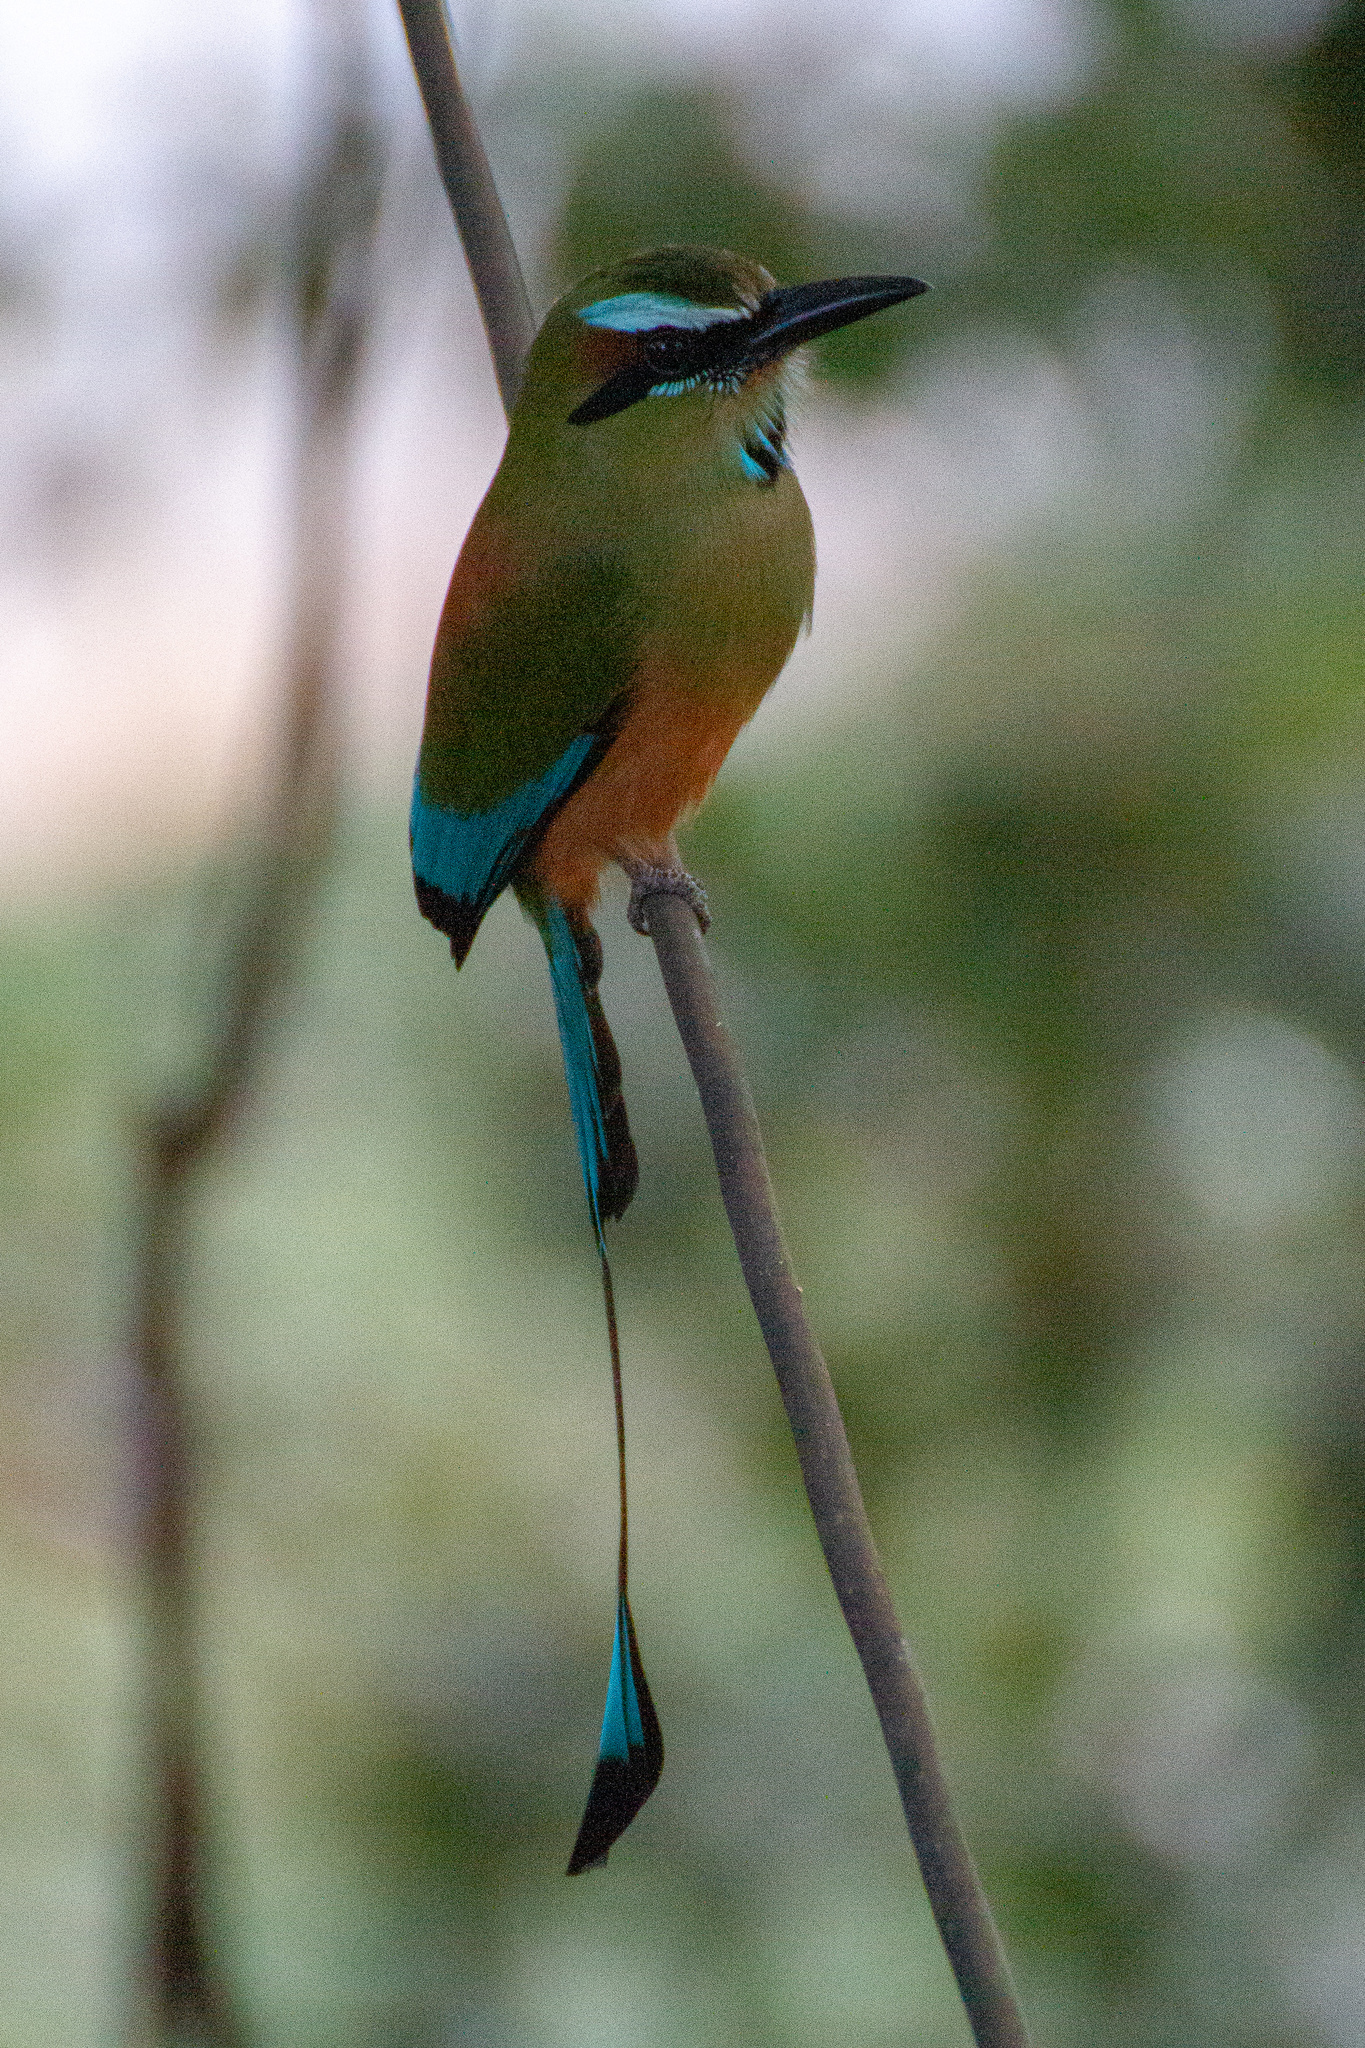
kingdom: Animalia
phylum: Chordata
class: Aves
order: Coraciiformes
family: Momotidae
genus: Eumomota
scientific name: Eumomota superciliosa
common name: Turquoise-browed motmot
